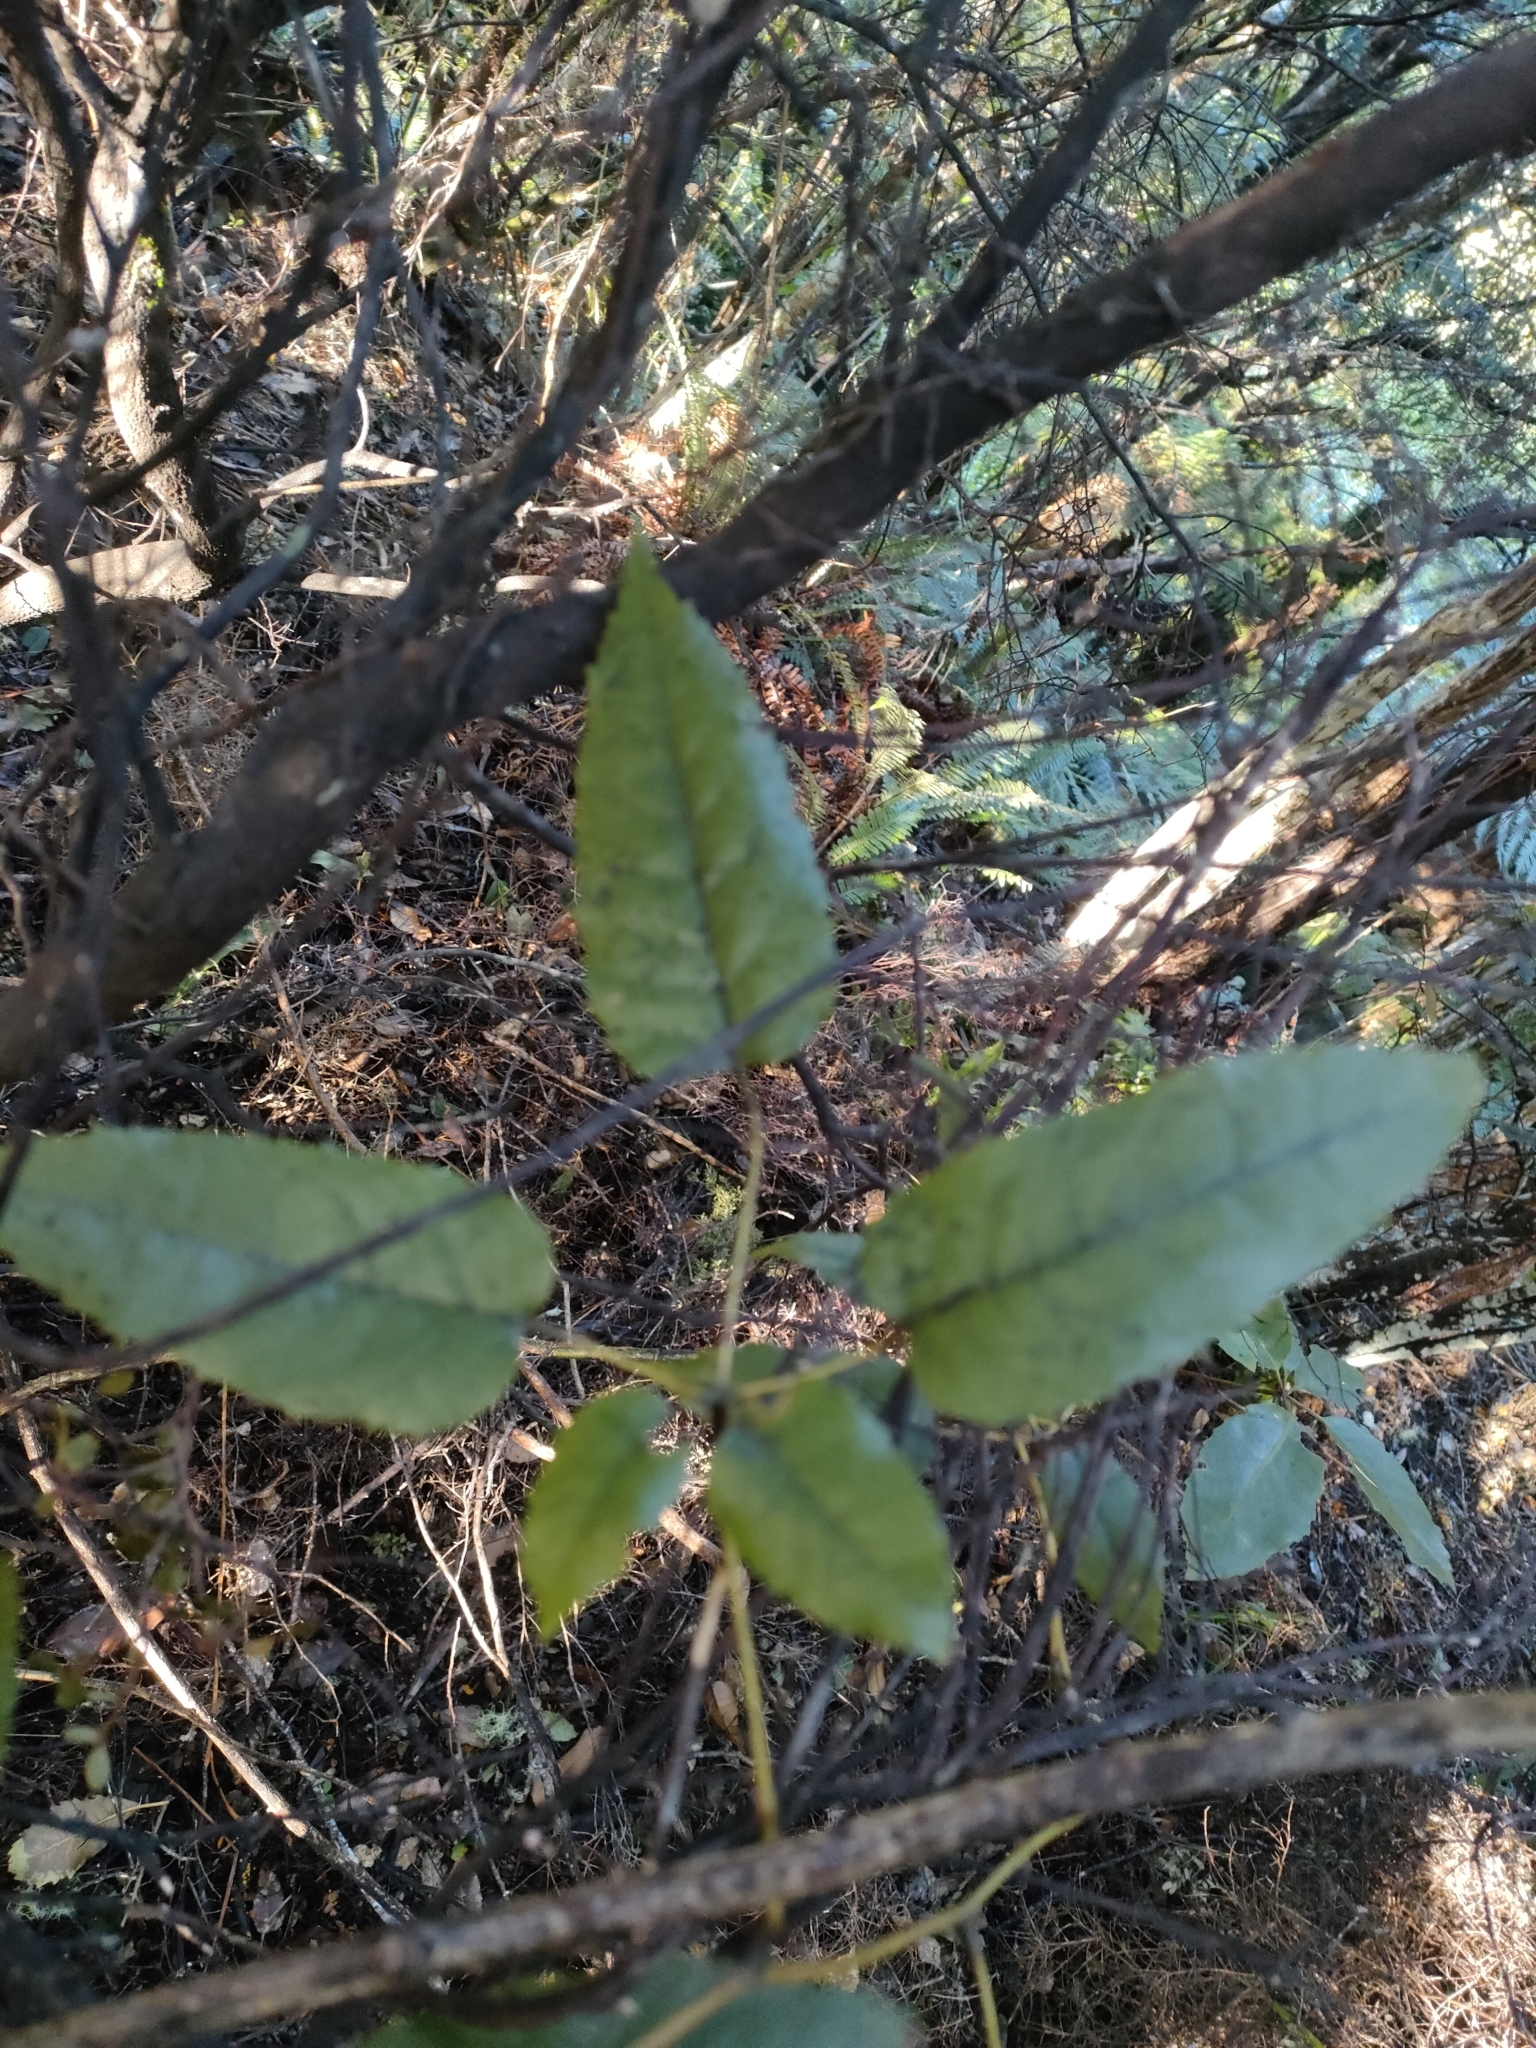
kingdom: Plantae
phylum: Tracheophyta
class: Magnoliopsida
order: Rosales
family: Rosaceae
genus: Rubus
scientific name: Rubus cissoides
